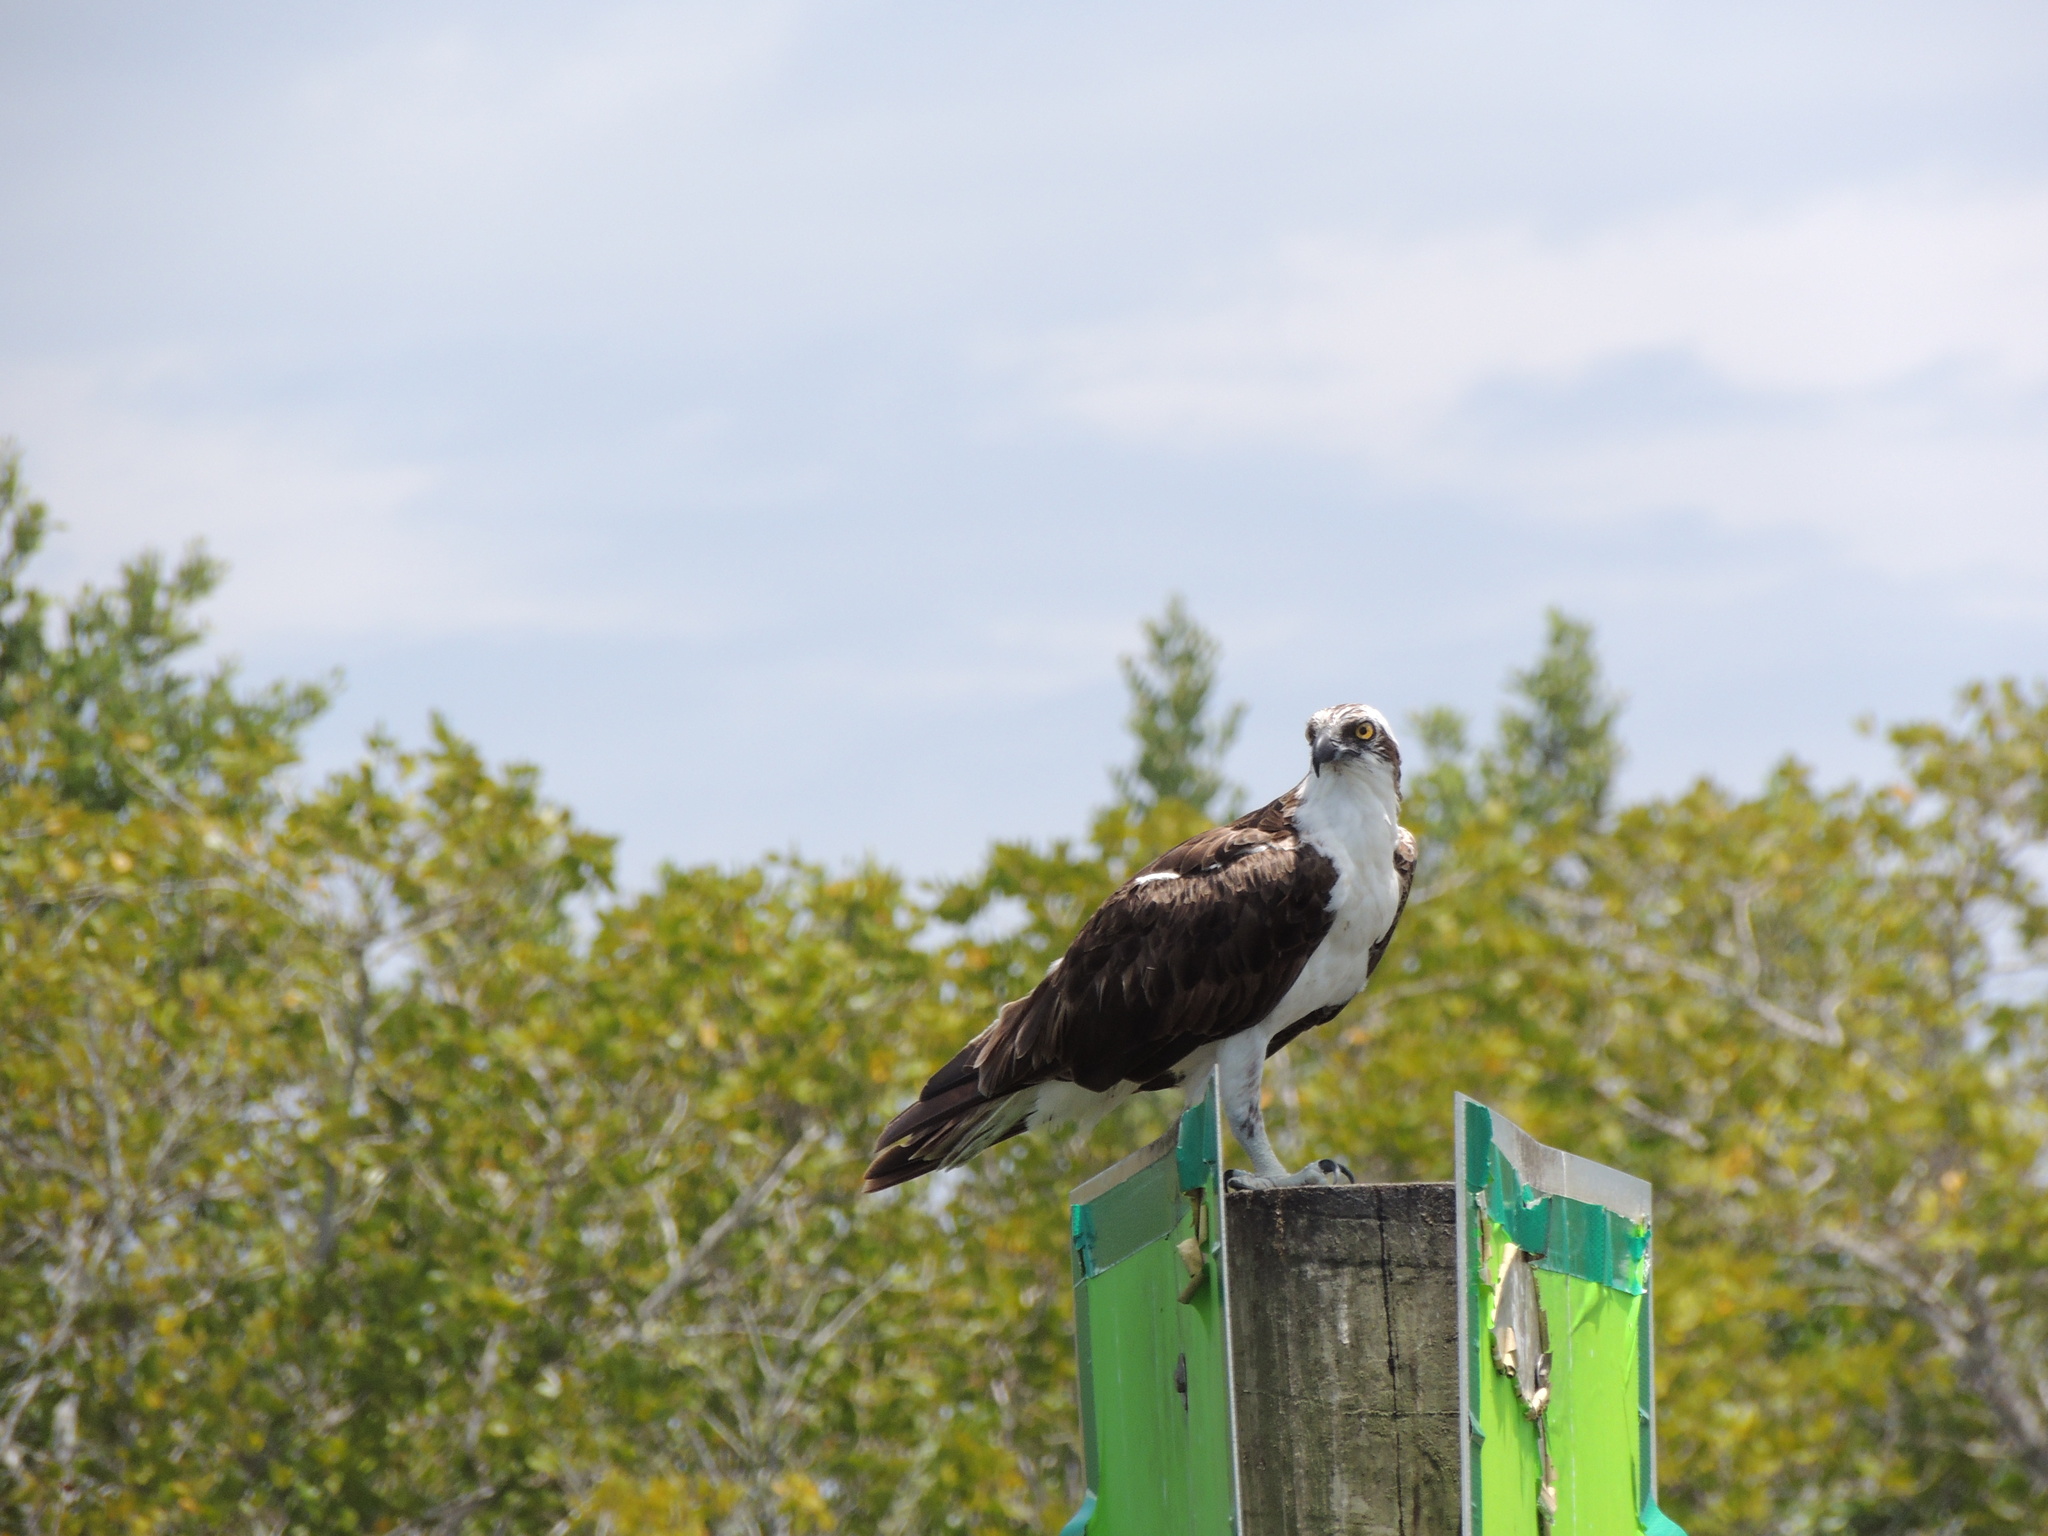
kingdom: Animalia
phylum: Chordata
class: Aves
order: Accipitriformes
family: Pandionidae
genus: Pandion
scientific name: Pandion haliaetus
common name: Osprey
